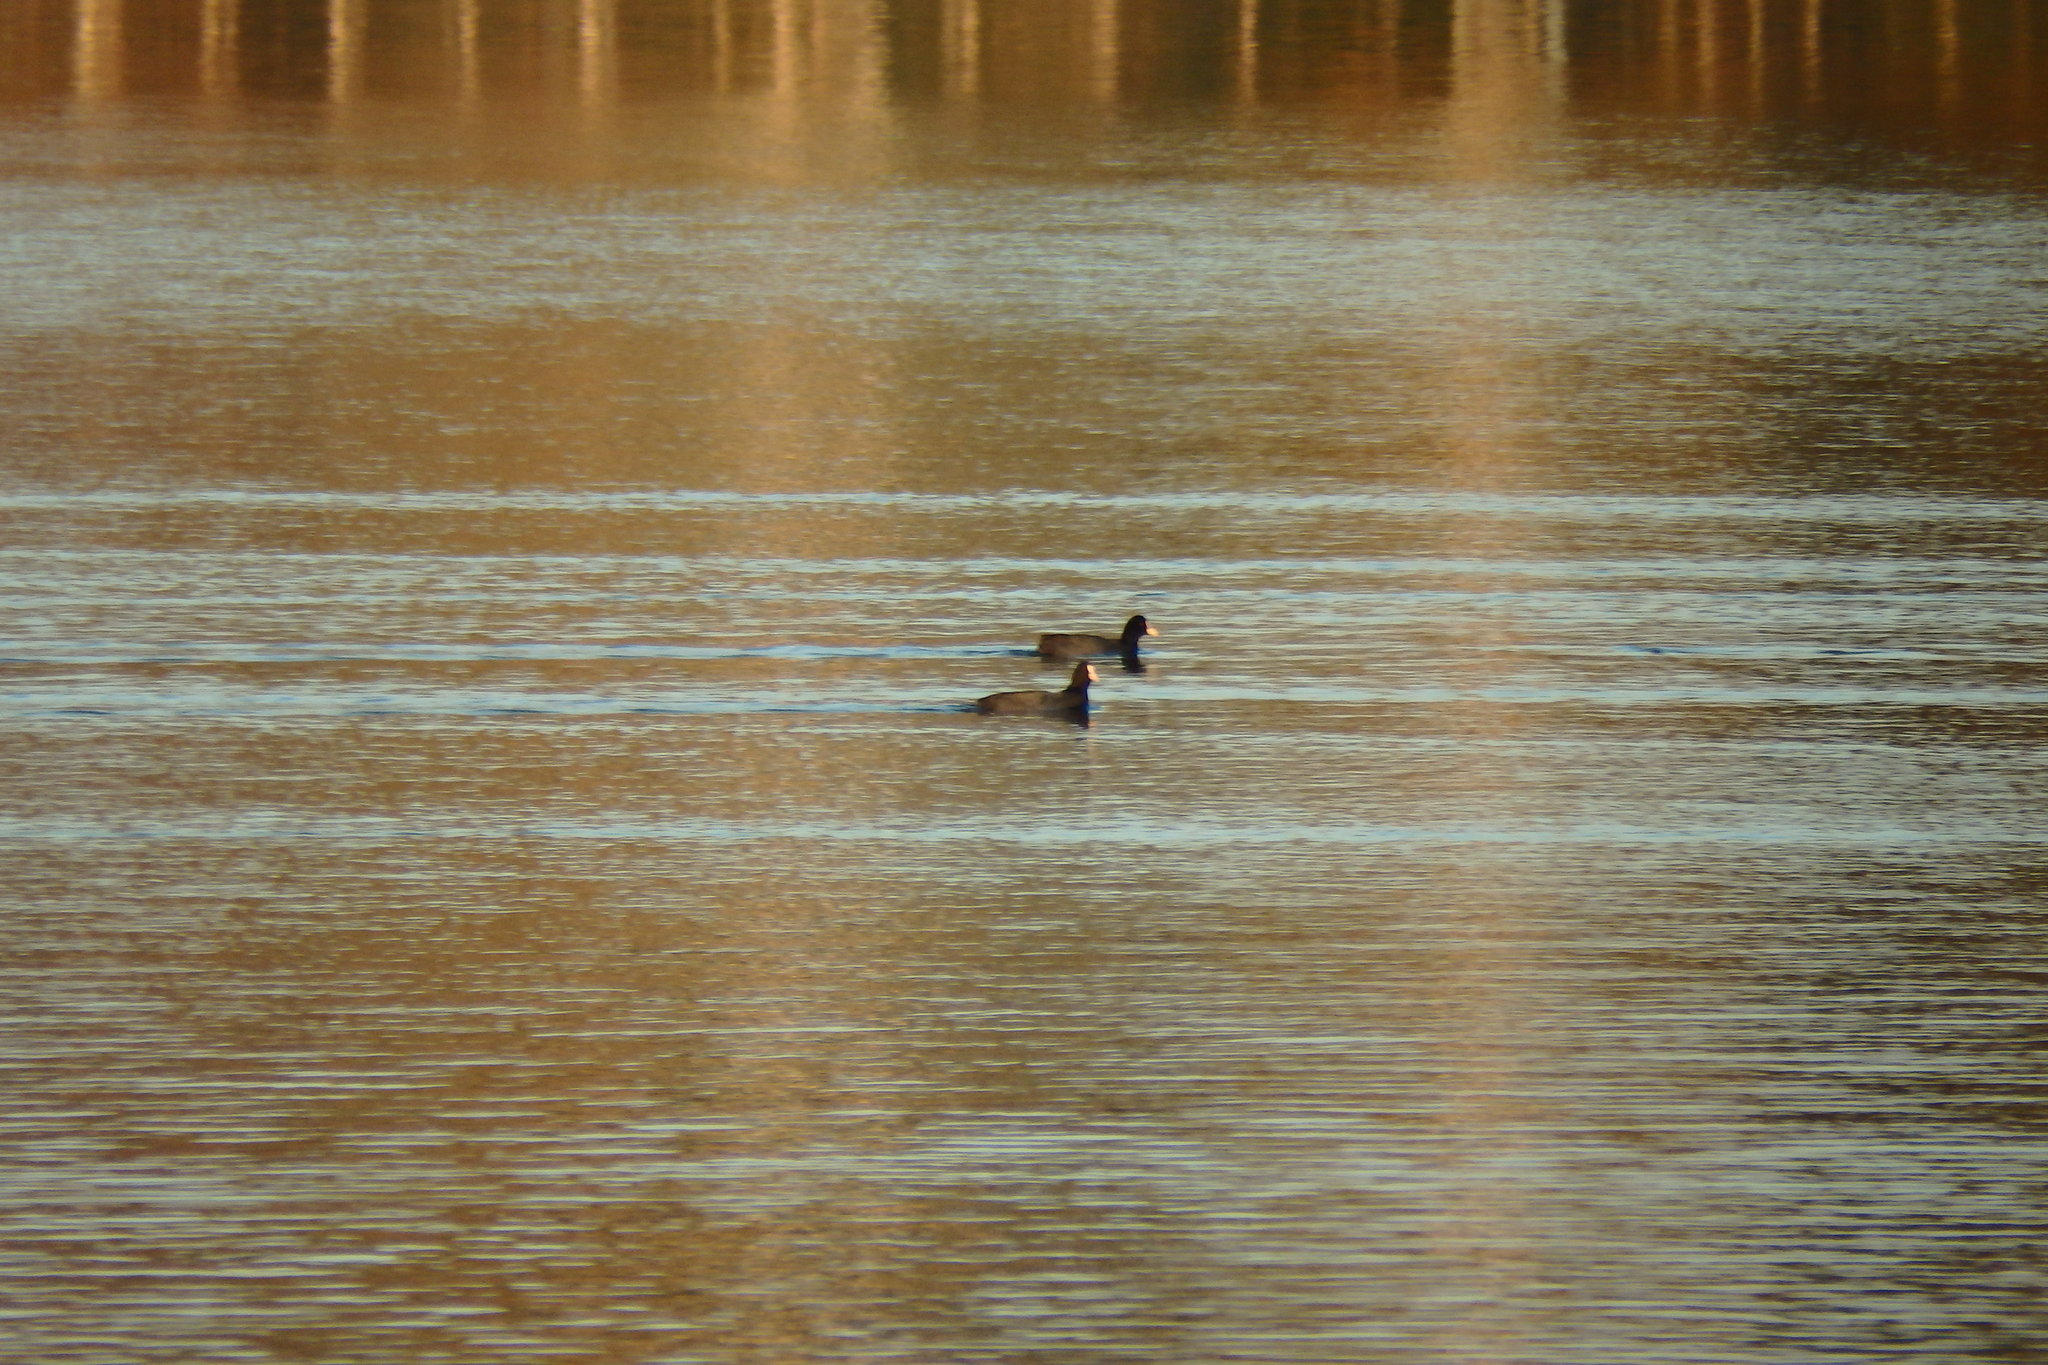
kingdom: Animalia
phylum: Chordata
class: Aves
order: Gruiformes
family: Rallidae
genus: Fulica
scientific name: Fulica atra
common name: Eurasian coot
